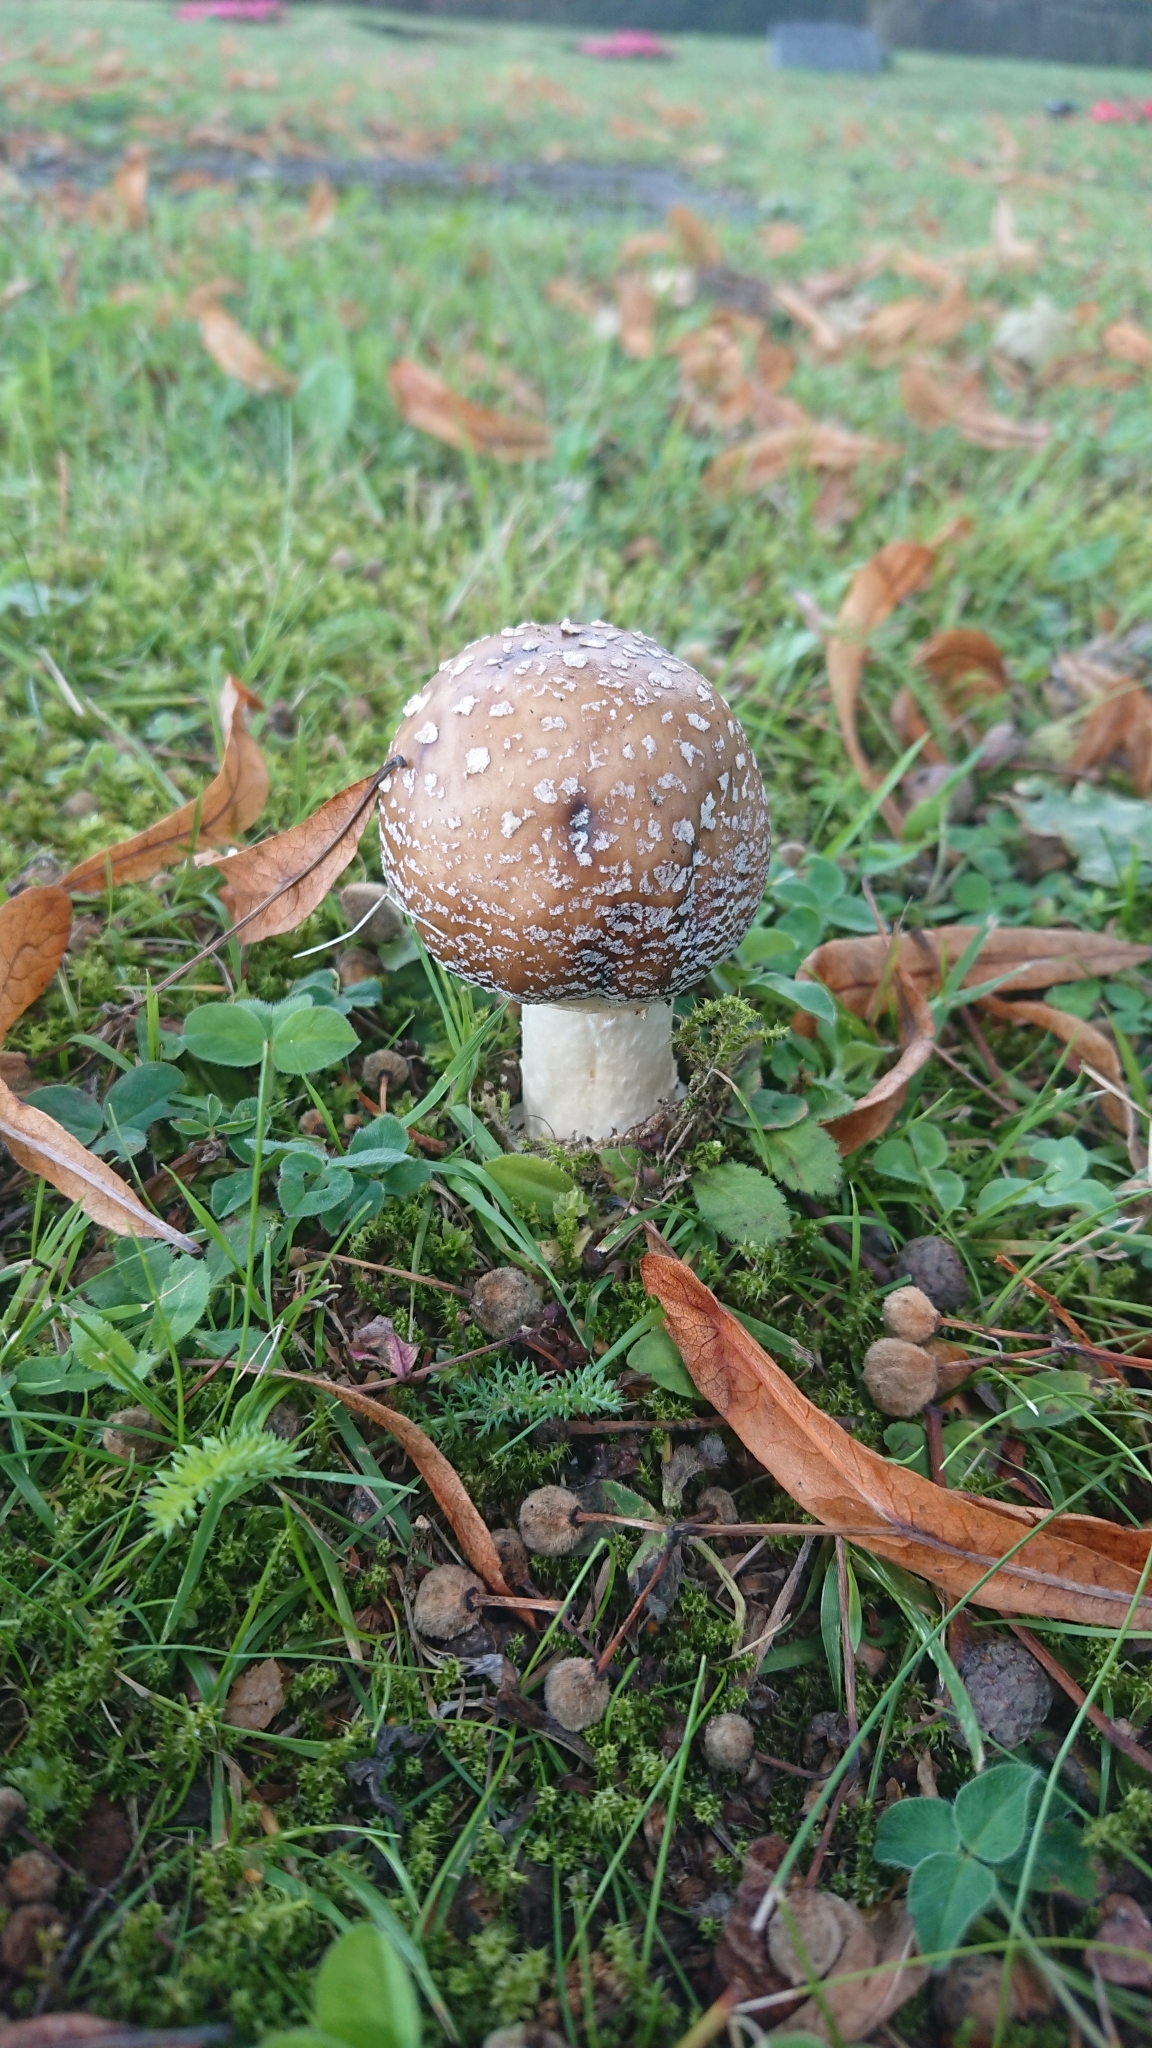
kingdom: Fungi
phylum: Basidiomycota
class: Agaricomycetes
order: Agaricales
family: Amanitaceae
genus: Amanita
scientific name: Amanita pantherina
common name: Panthercap
